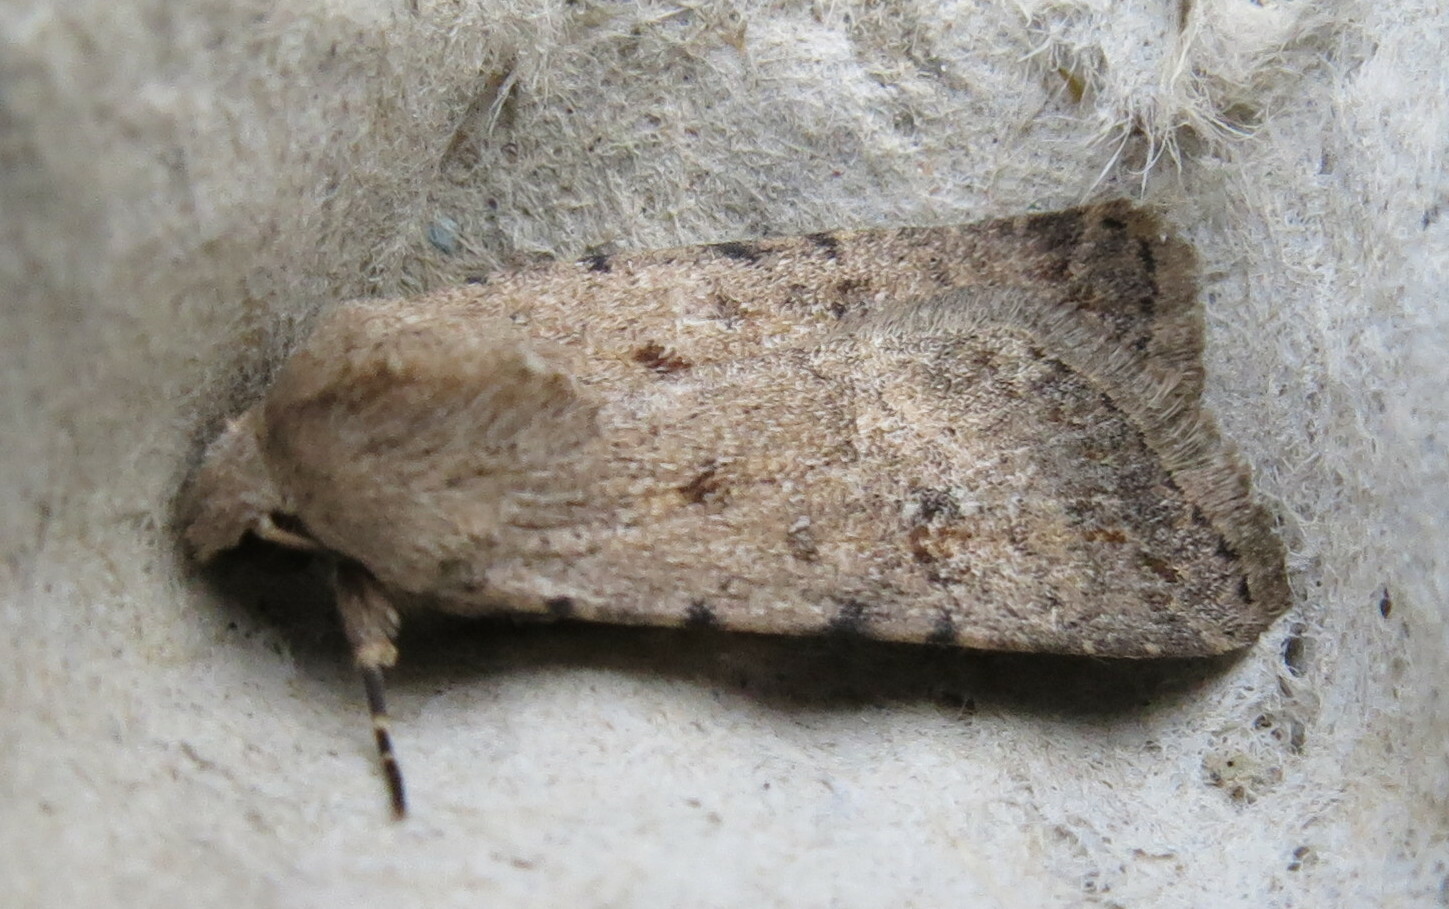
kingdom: Animalia
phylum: Arthropoda
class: Insecta
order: Lepidoptera
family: Noctuidae
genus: Caradrina
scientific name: Caradrina clavipalpis
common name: Pale mottled willow
